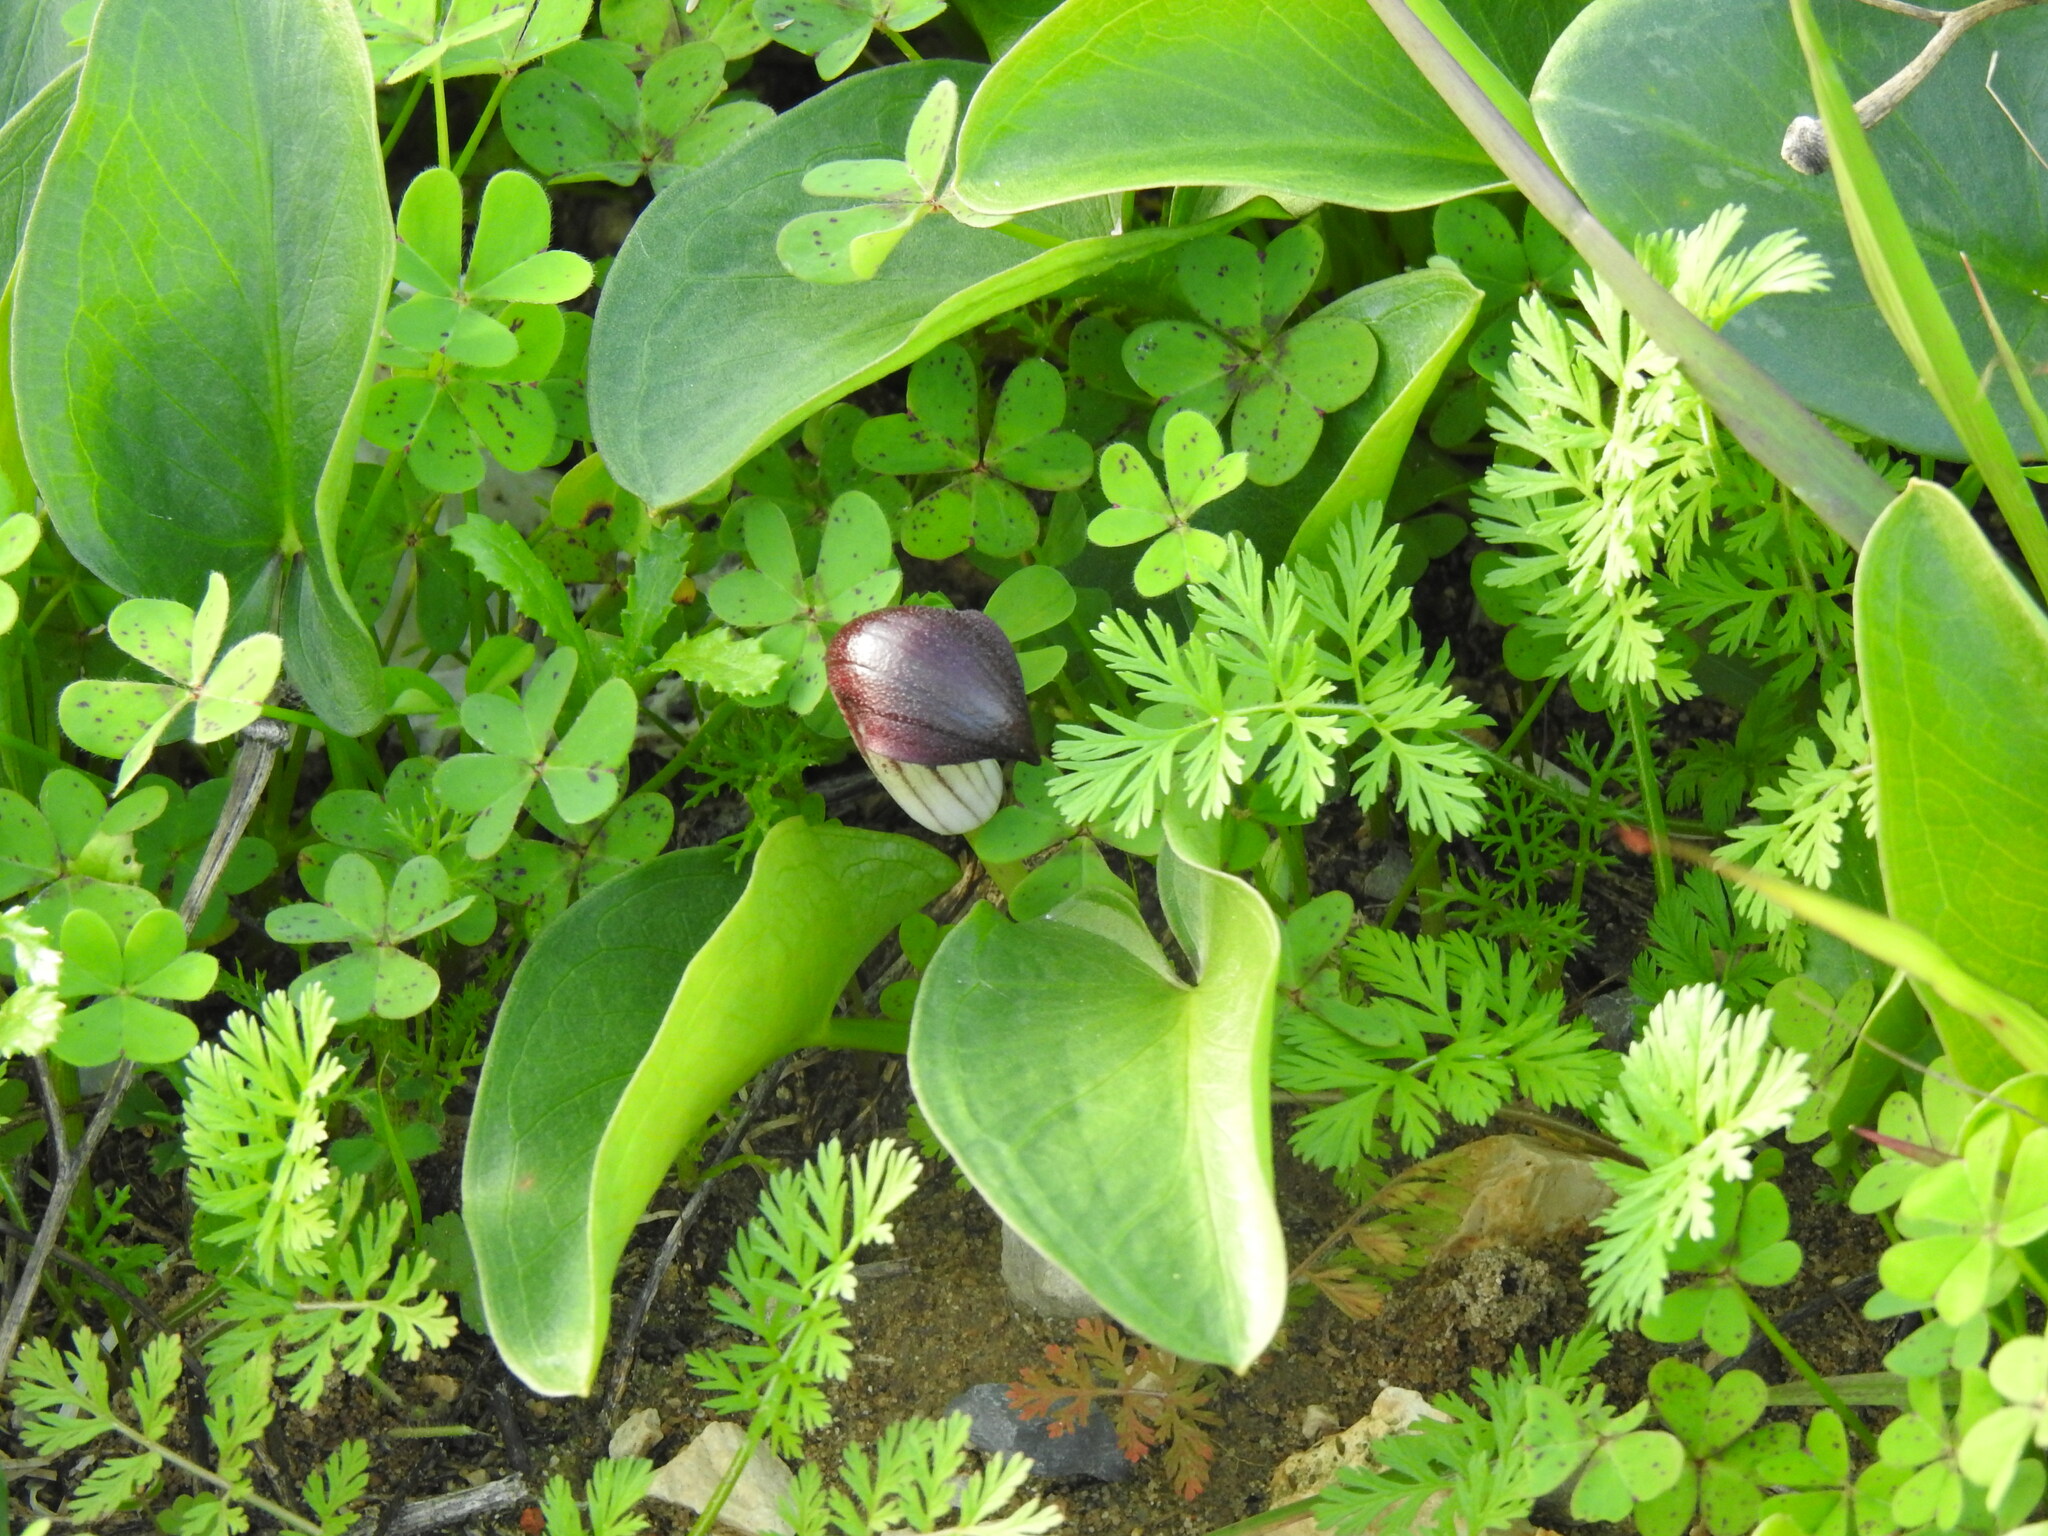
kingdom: Plantae
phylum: Tracheophyta
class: Liliopsida
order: Alismatales
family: Araceae
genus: Arisarum
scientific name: Arisarum simorrhinum
